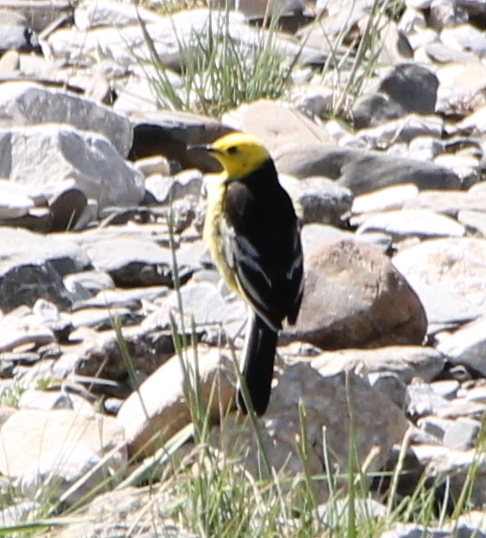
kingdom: Animalia
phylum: Chordata
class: Aves
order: Passeriformes
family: Motacillidae
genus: Motacilla
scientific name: Motacilla citreola
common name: Citrine wagtail
